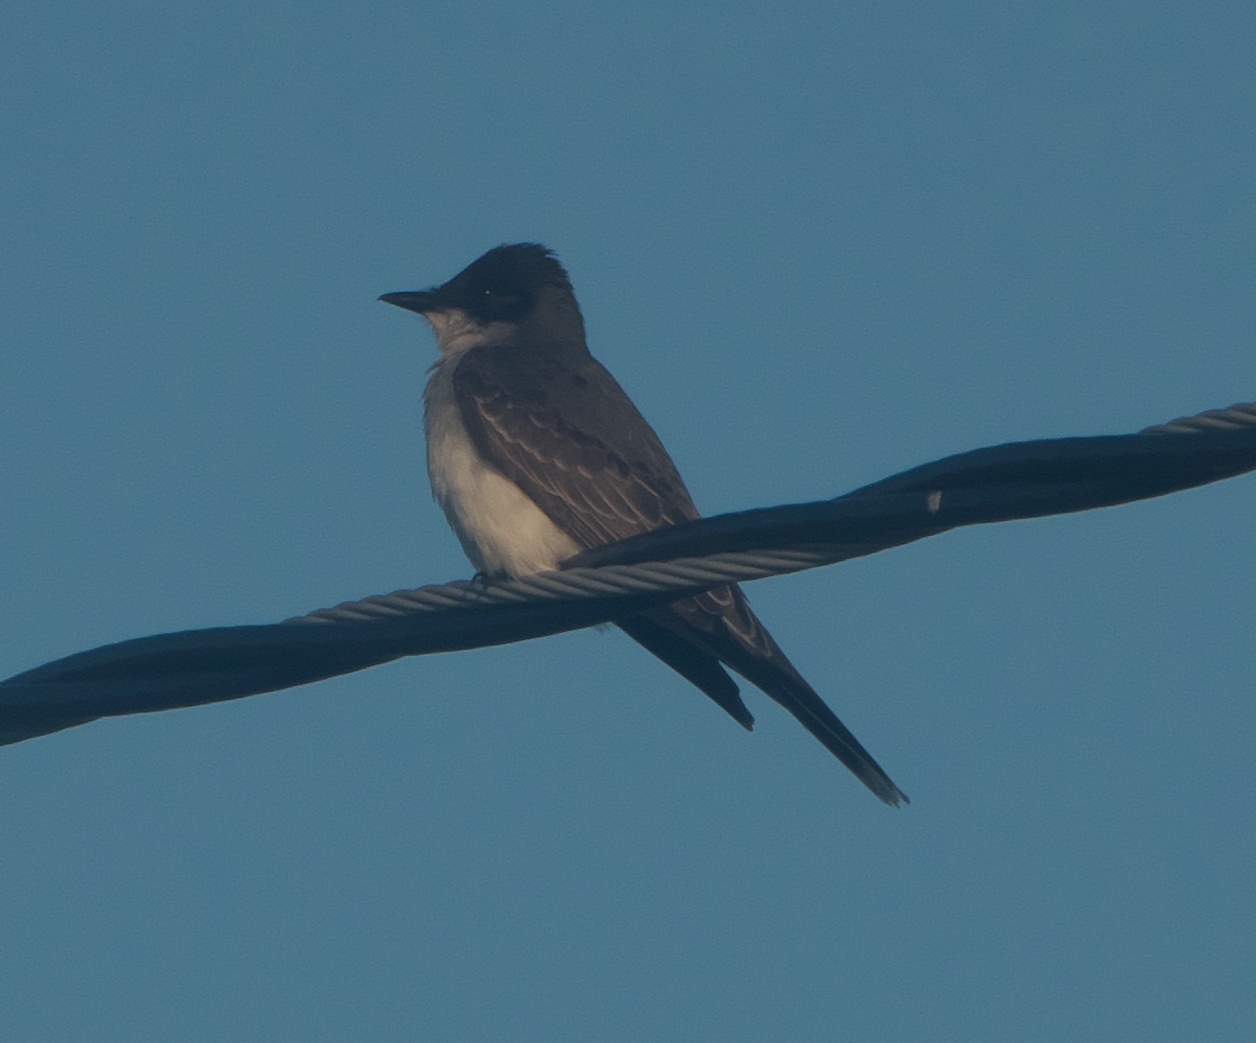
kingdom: Animalia
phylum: Chordata
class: Aves
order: Passeriformes
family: Tyrannidae
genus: Tyrannus
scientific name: Tyrannus tyrannus
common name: Eastern kingbird
